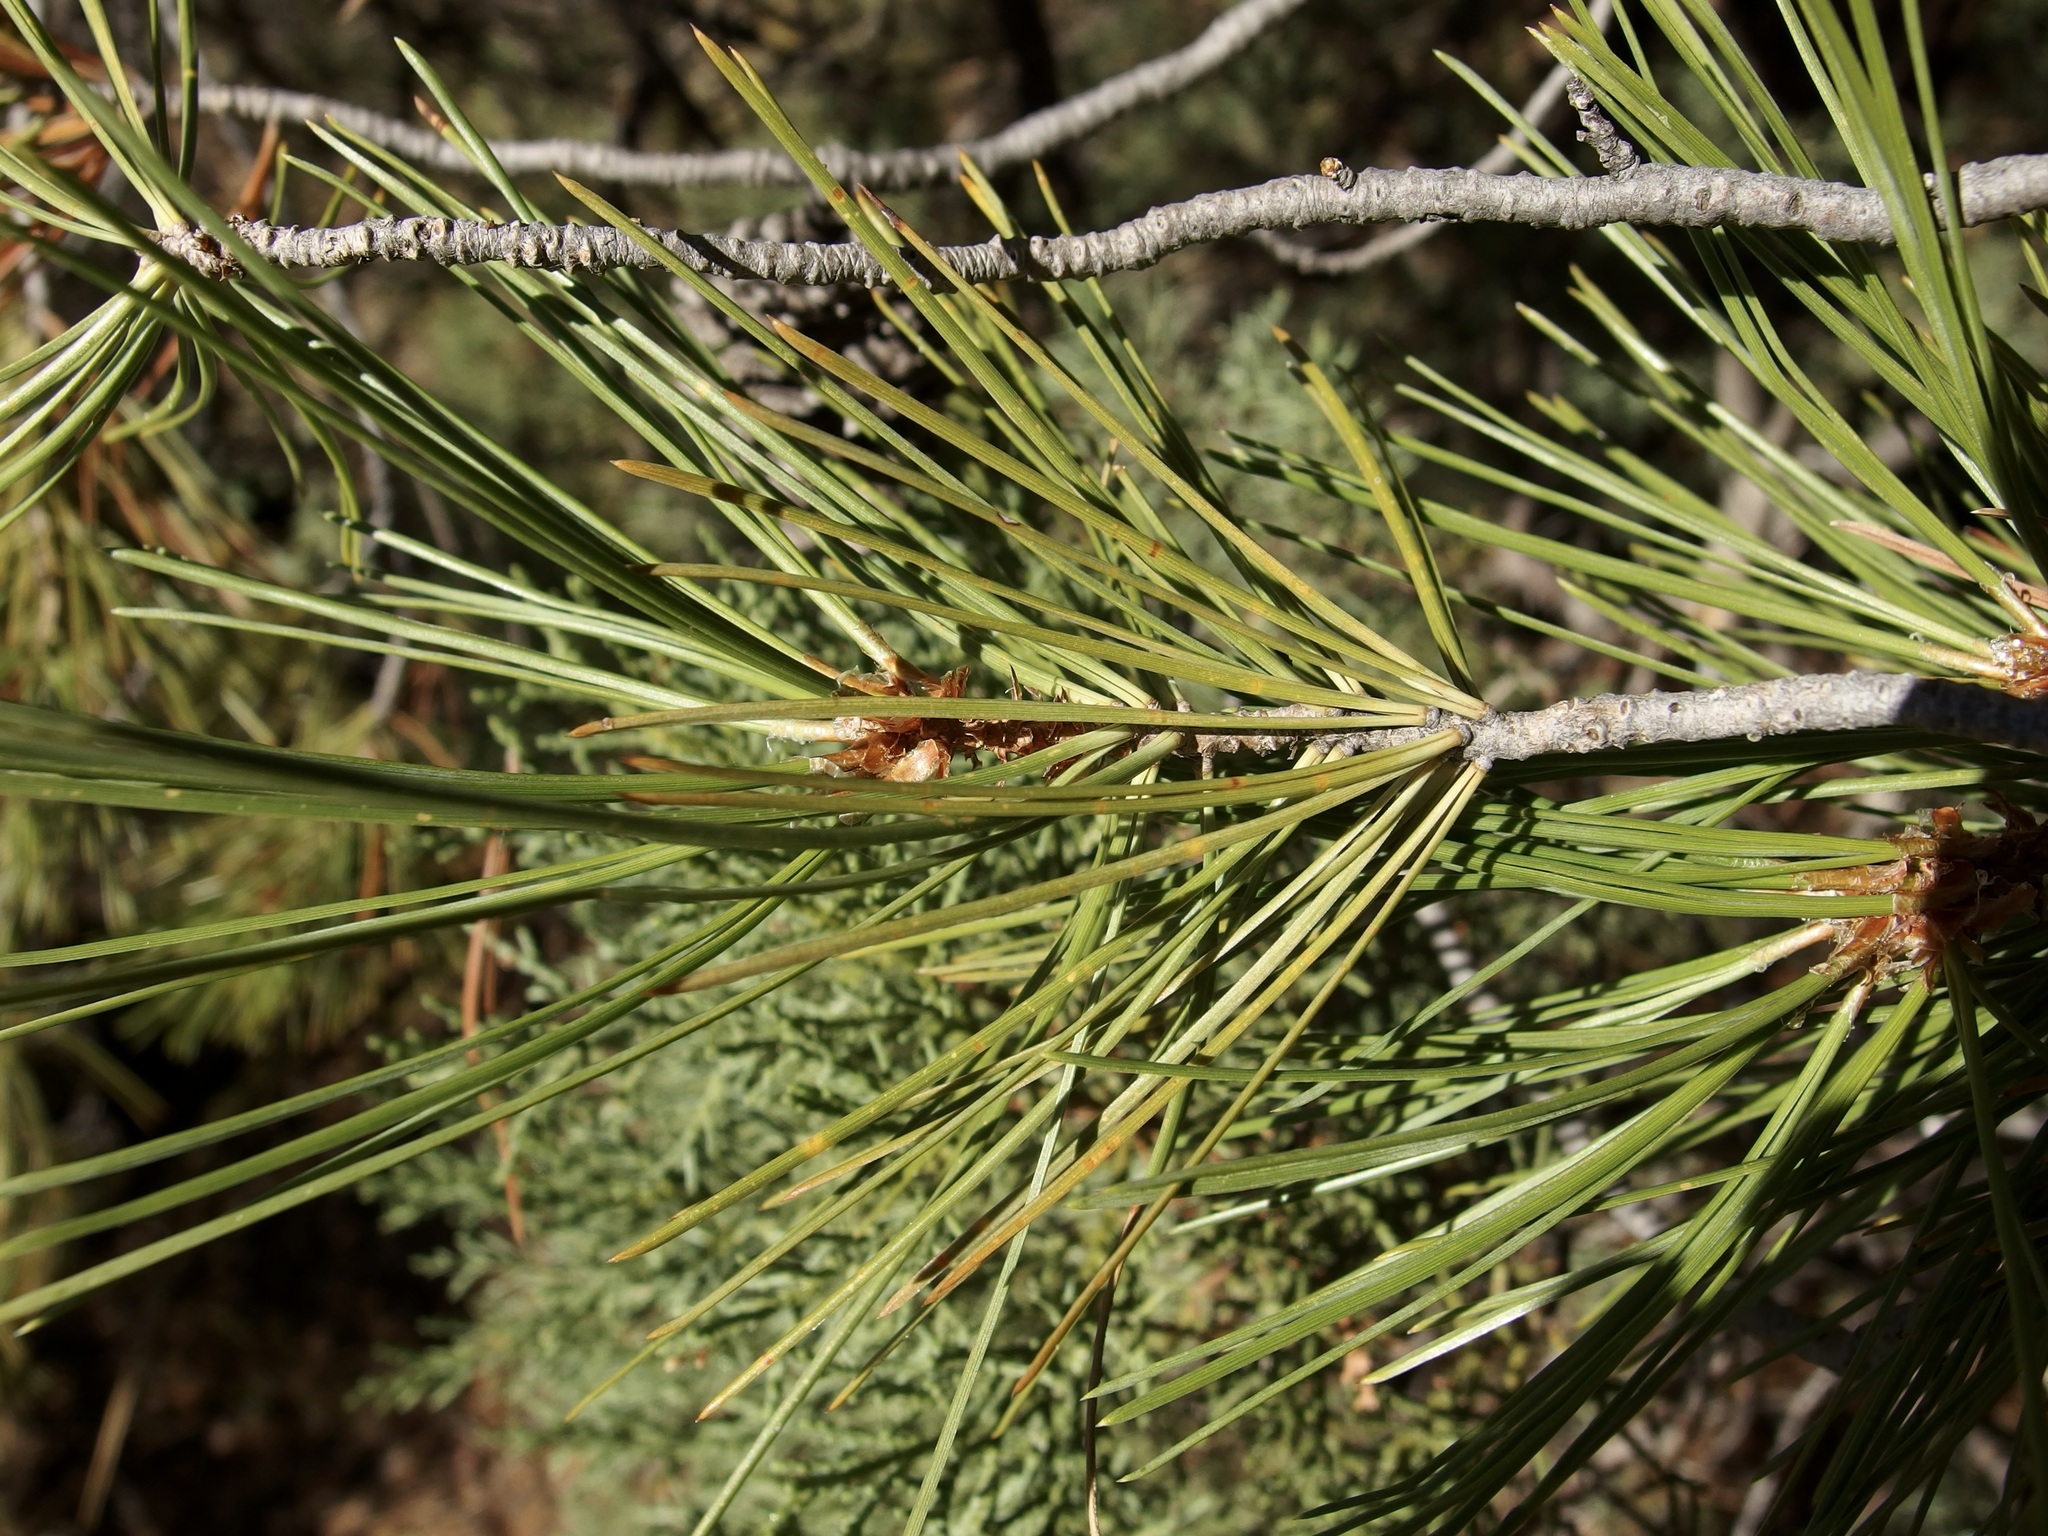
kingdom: Plantae
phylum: Tracheophyta
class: Pinopsida
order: Pinales
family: Pinaceae
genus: Pinus
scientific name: Pinus leiophylla
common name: Chihuahua pine
